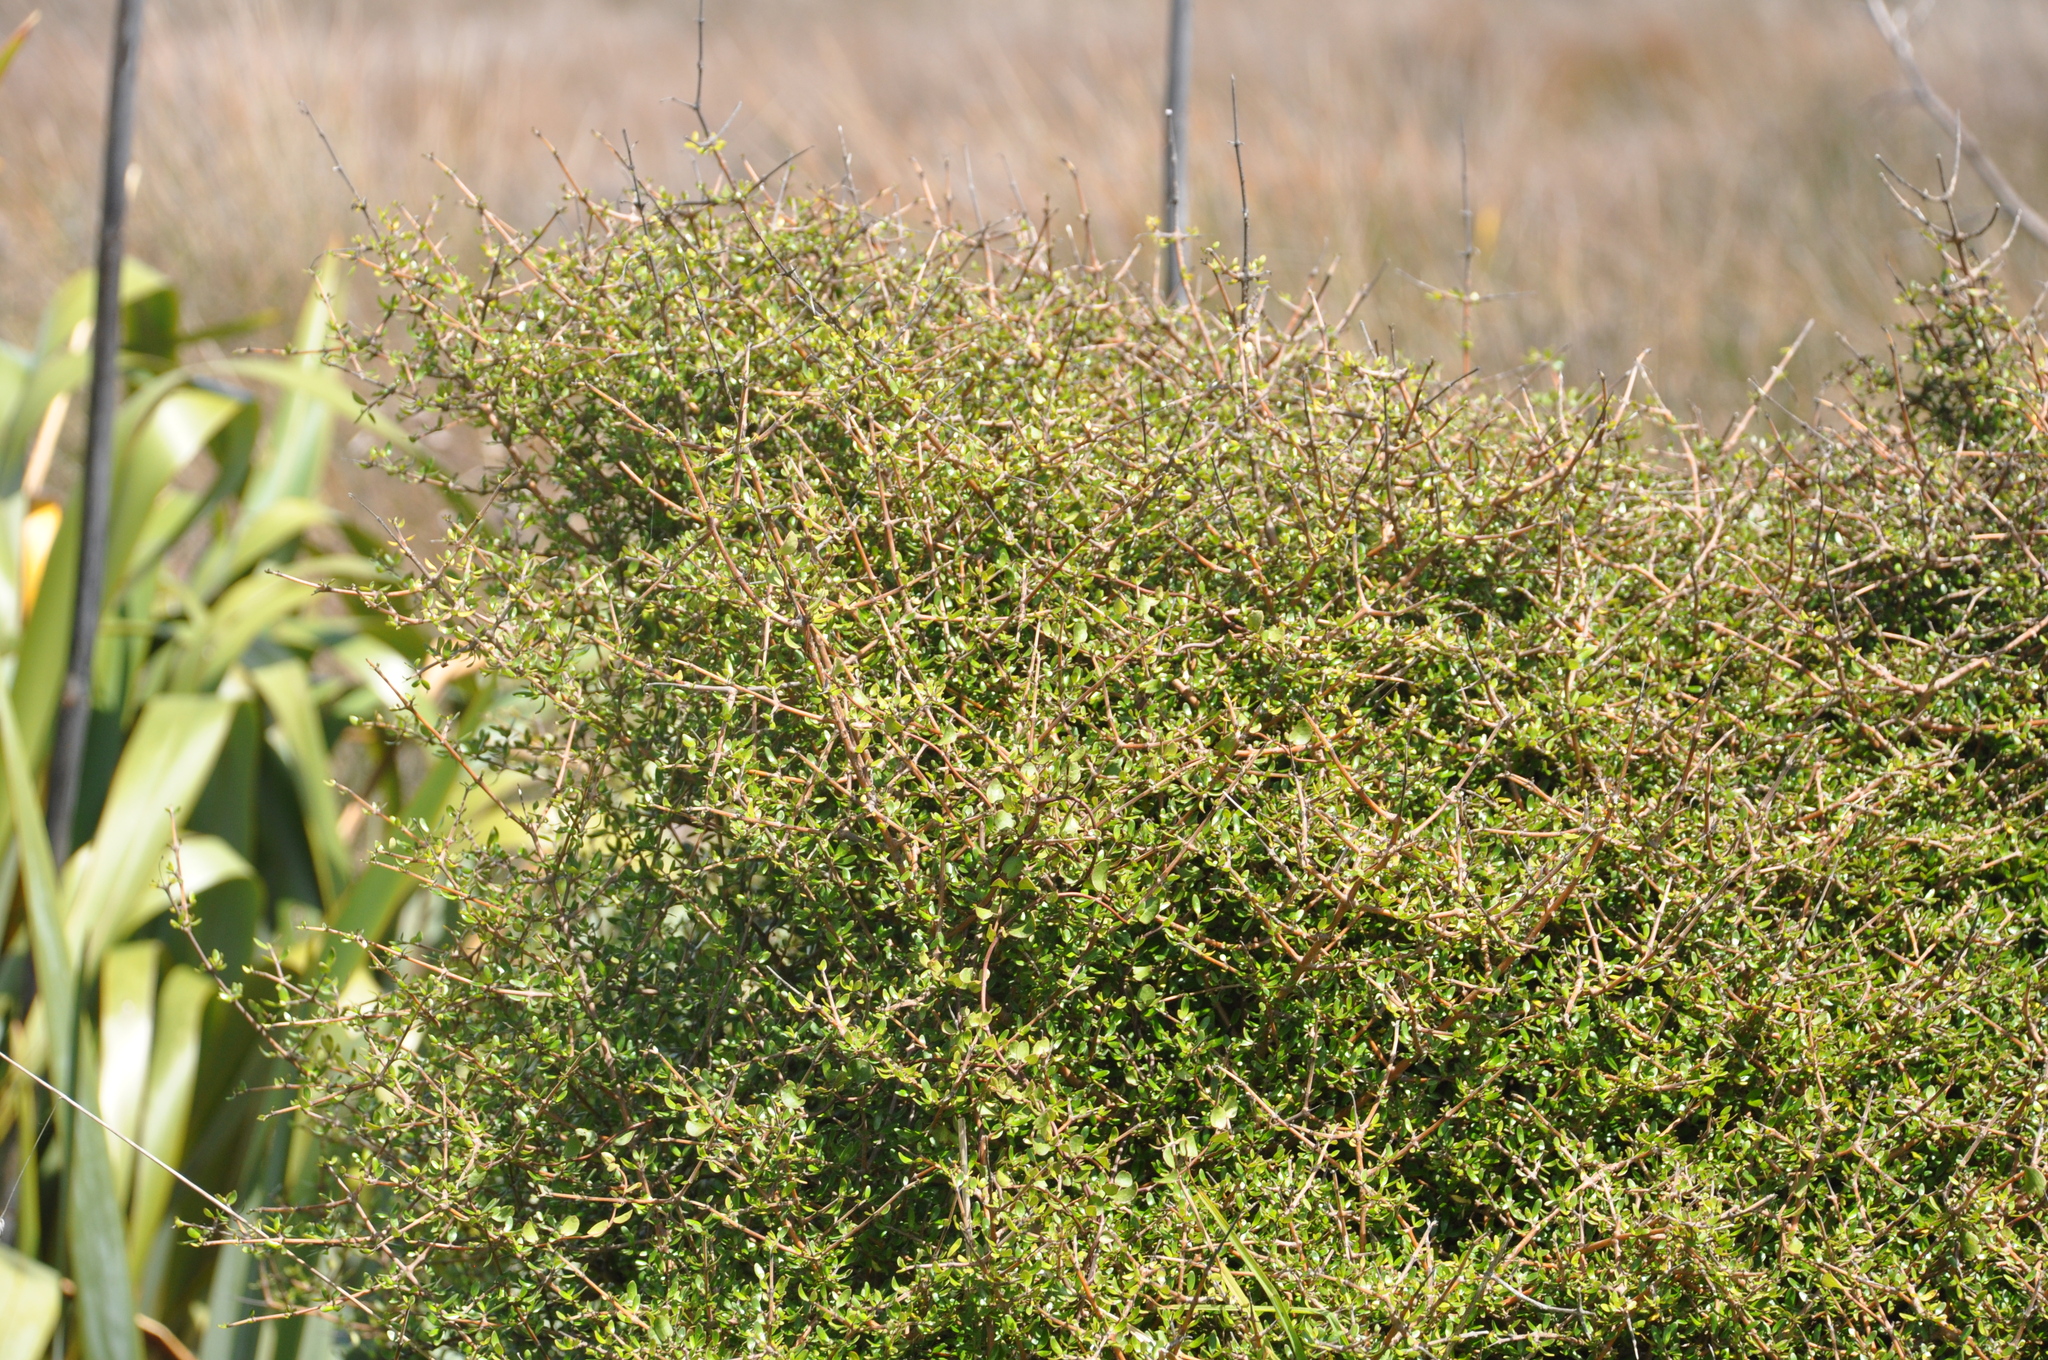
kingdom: Plantae
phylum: Tracheophyta
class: Magnoliopsida
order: Gentianales
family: Rubiaceae
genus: Coprosma
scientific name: Coprosma propinqua
